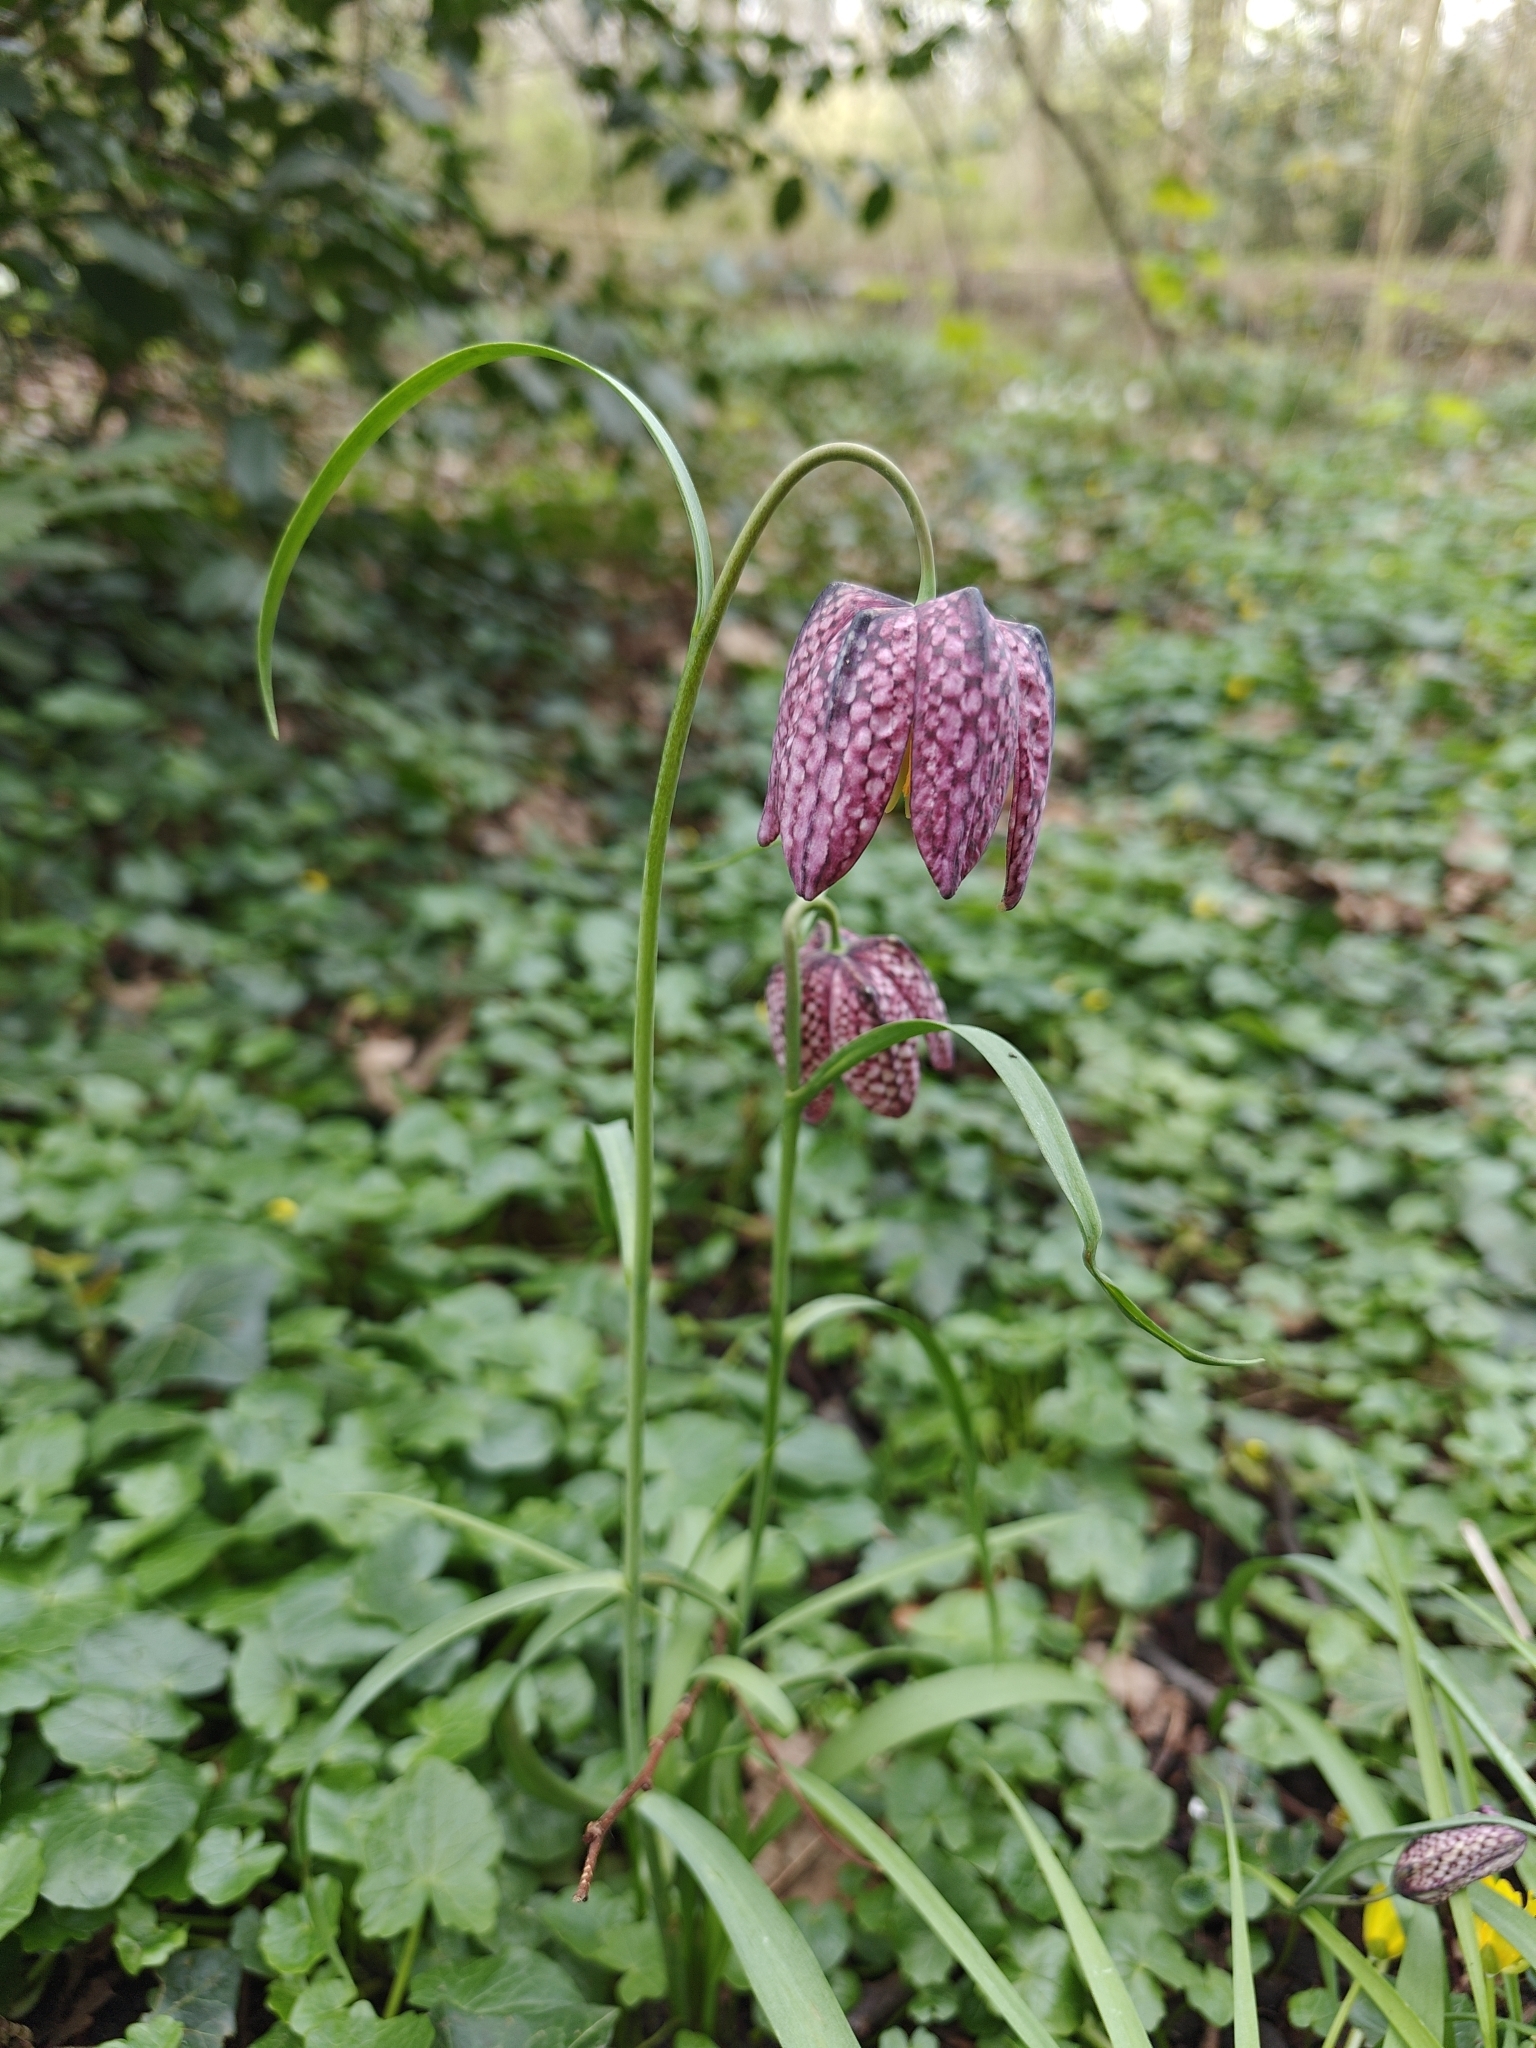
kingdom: Plantae
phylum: Tracheophyta
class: Liliopsida
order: Liliales
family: Liliaceae
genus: Fritillaria
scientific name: Fritillaria meleagris
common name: Fritillary
